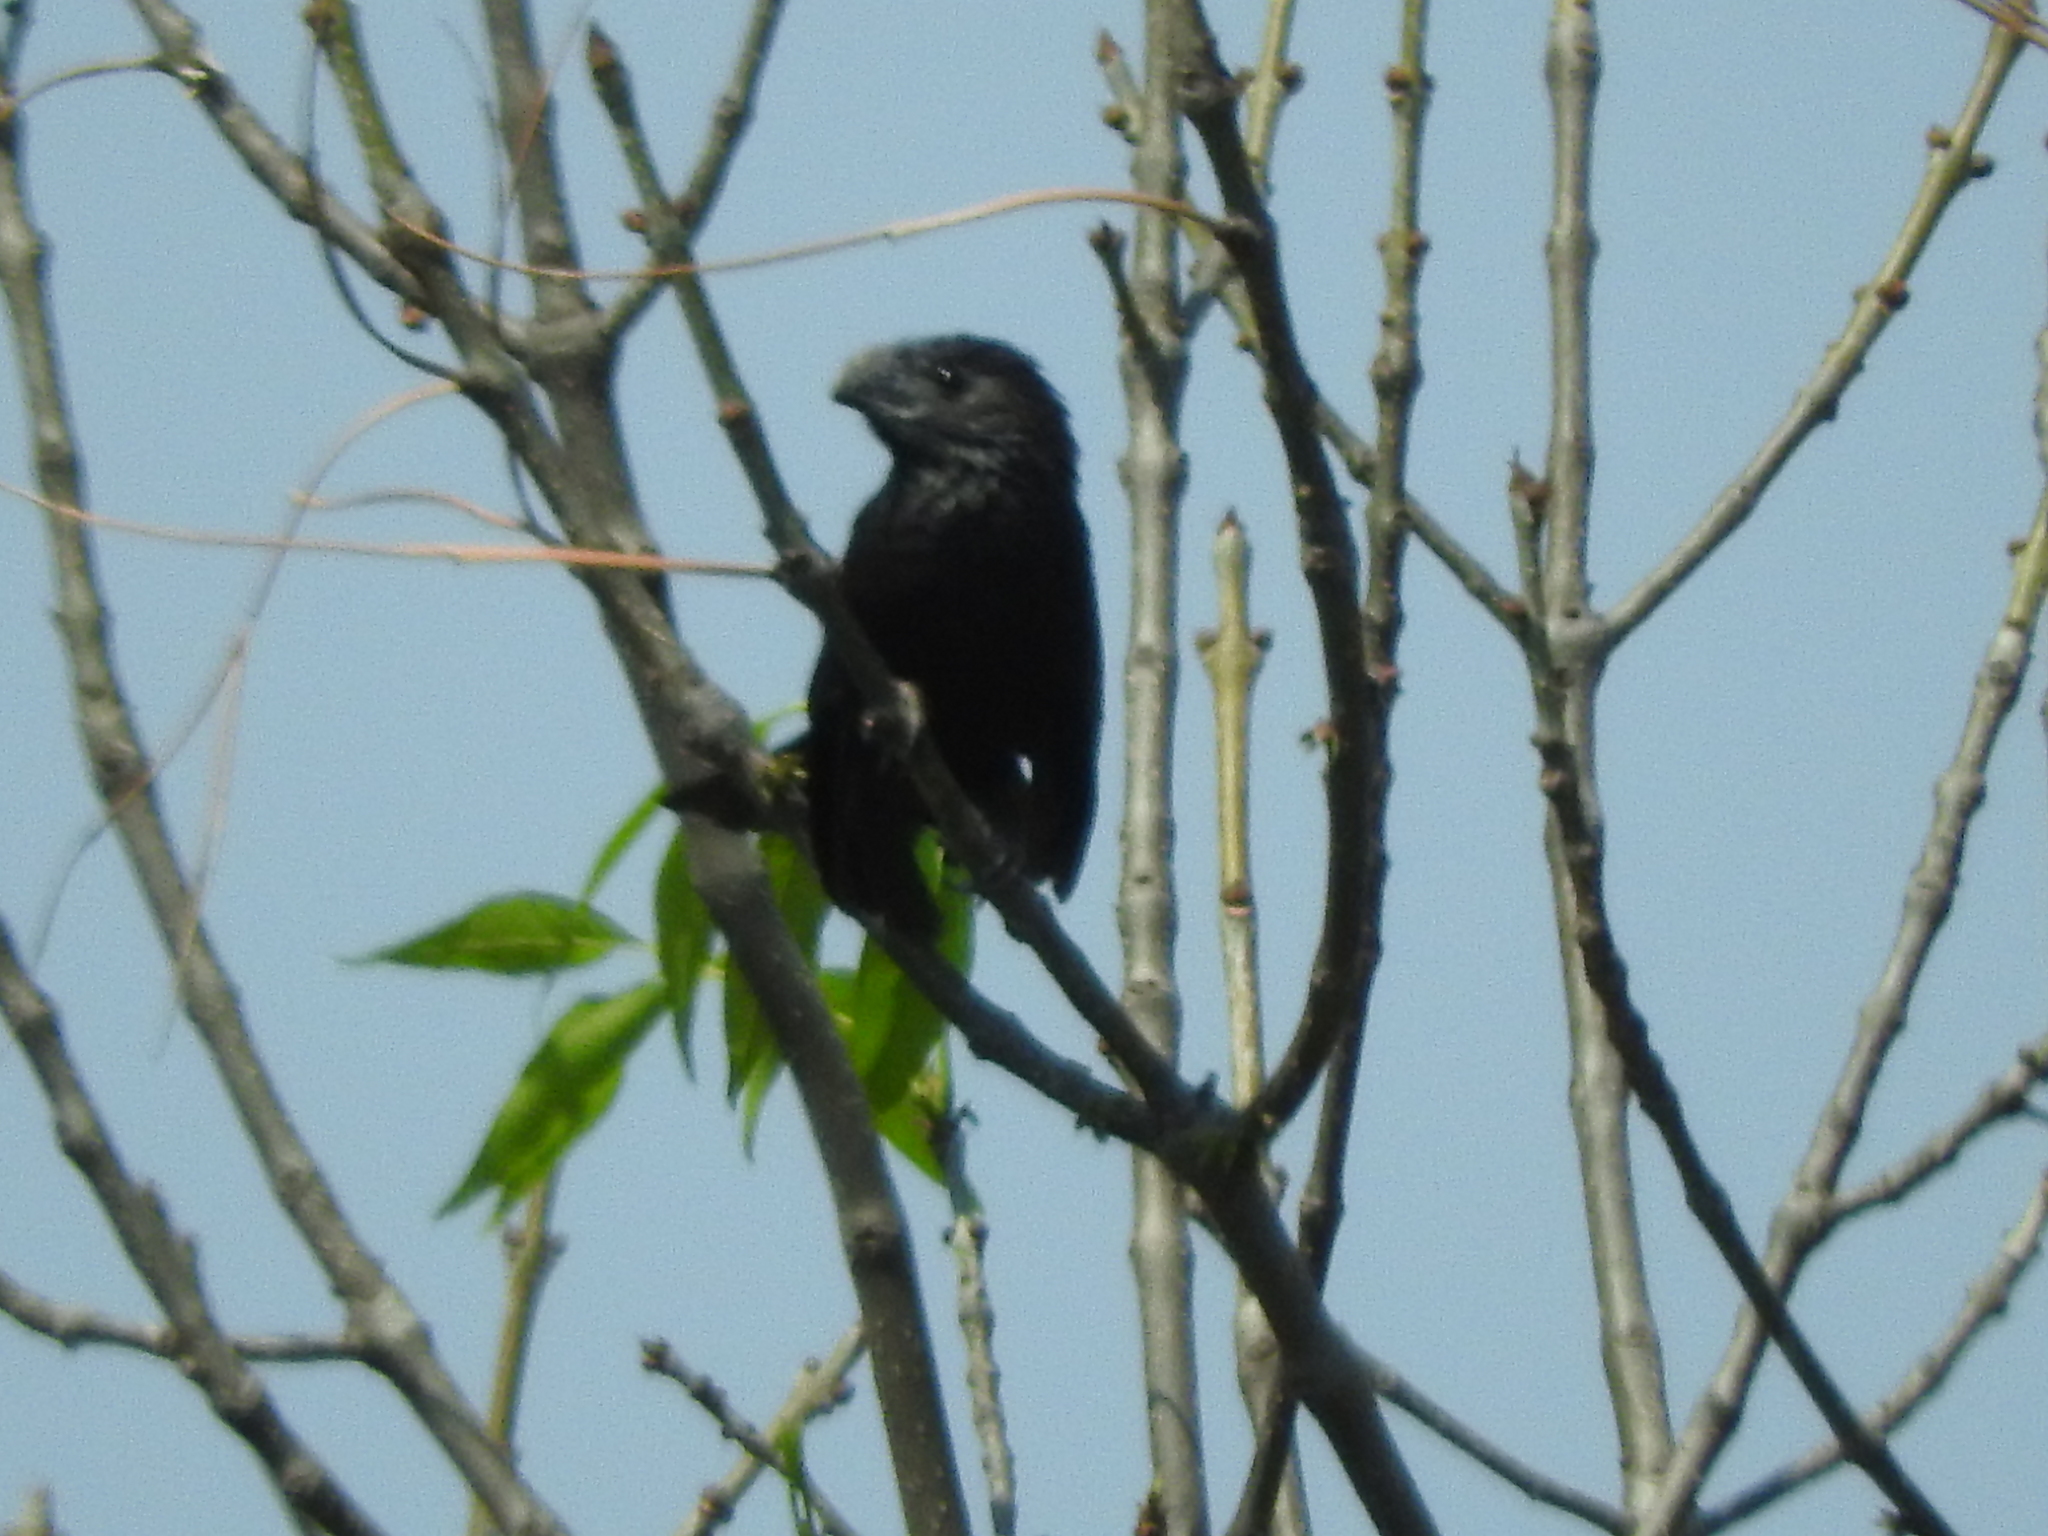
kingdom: Animalia
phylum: Chordata
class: Aves
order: Cuculiformes
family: Cuculidae
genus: Crotophaga
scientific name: Crotophaga sulcirostris
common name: Groove-billed ani
